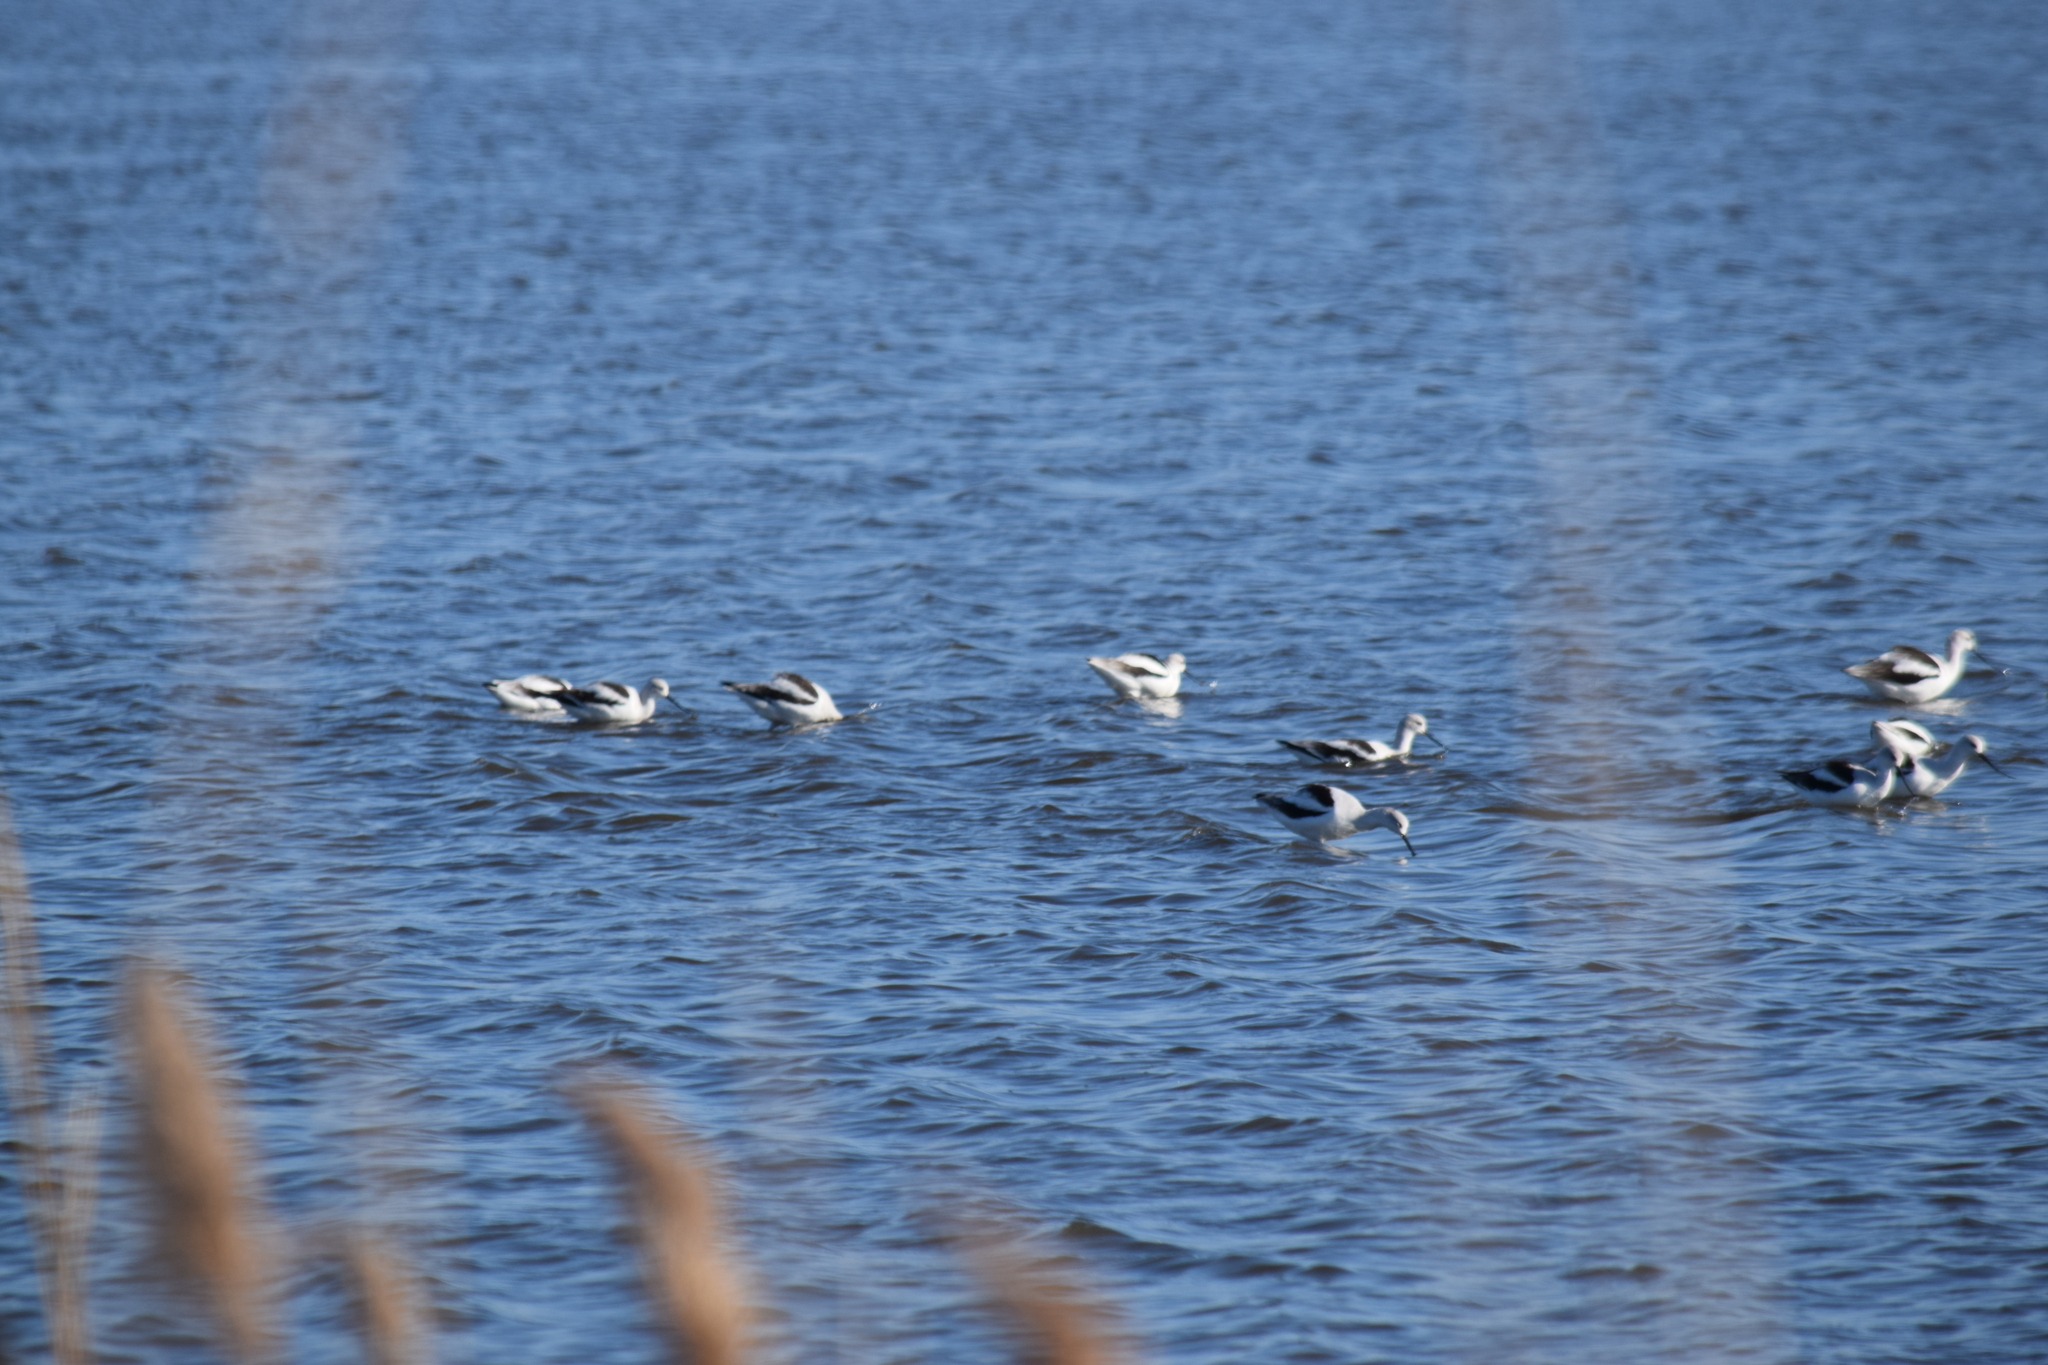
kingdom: Animalia
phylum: Chordata
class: Aves
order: Charadriiformes
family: Recurvirostridae
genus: Recurvirostra
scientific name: Recurvirostra americana
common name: American avocet
